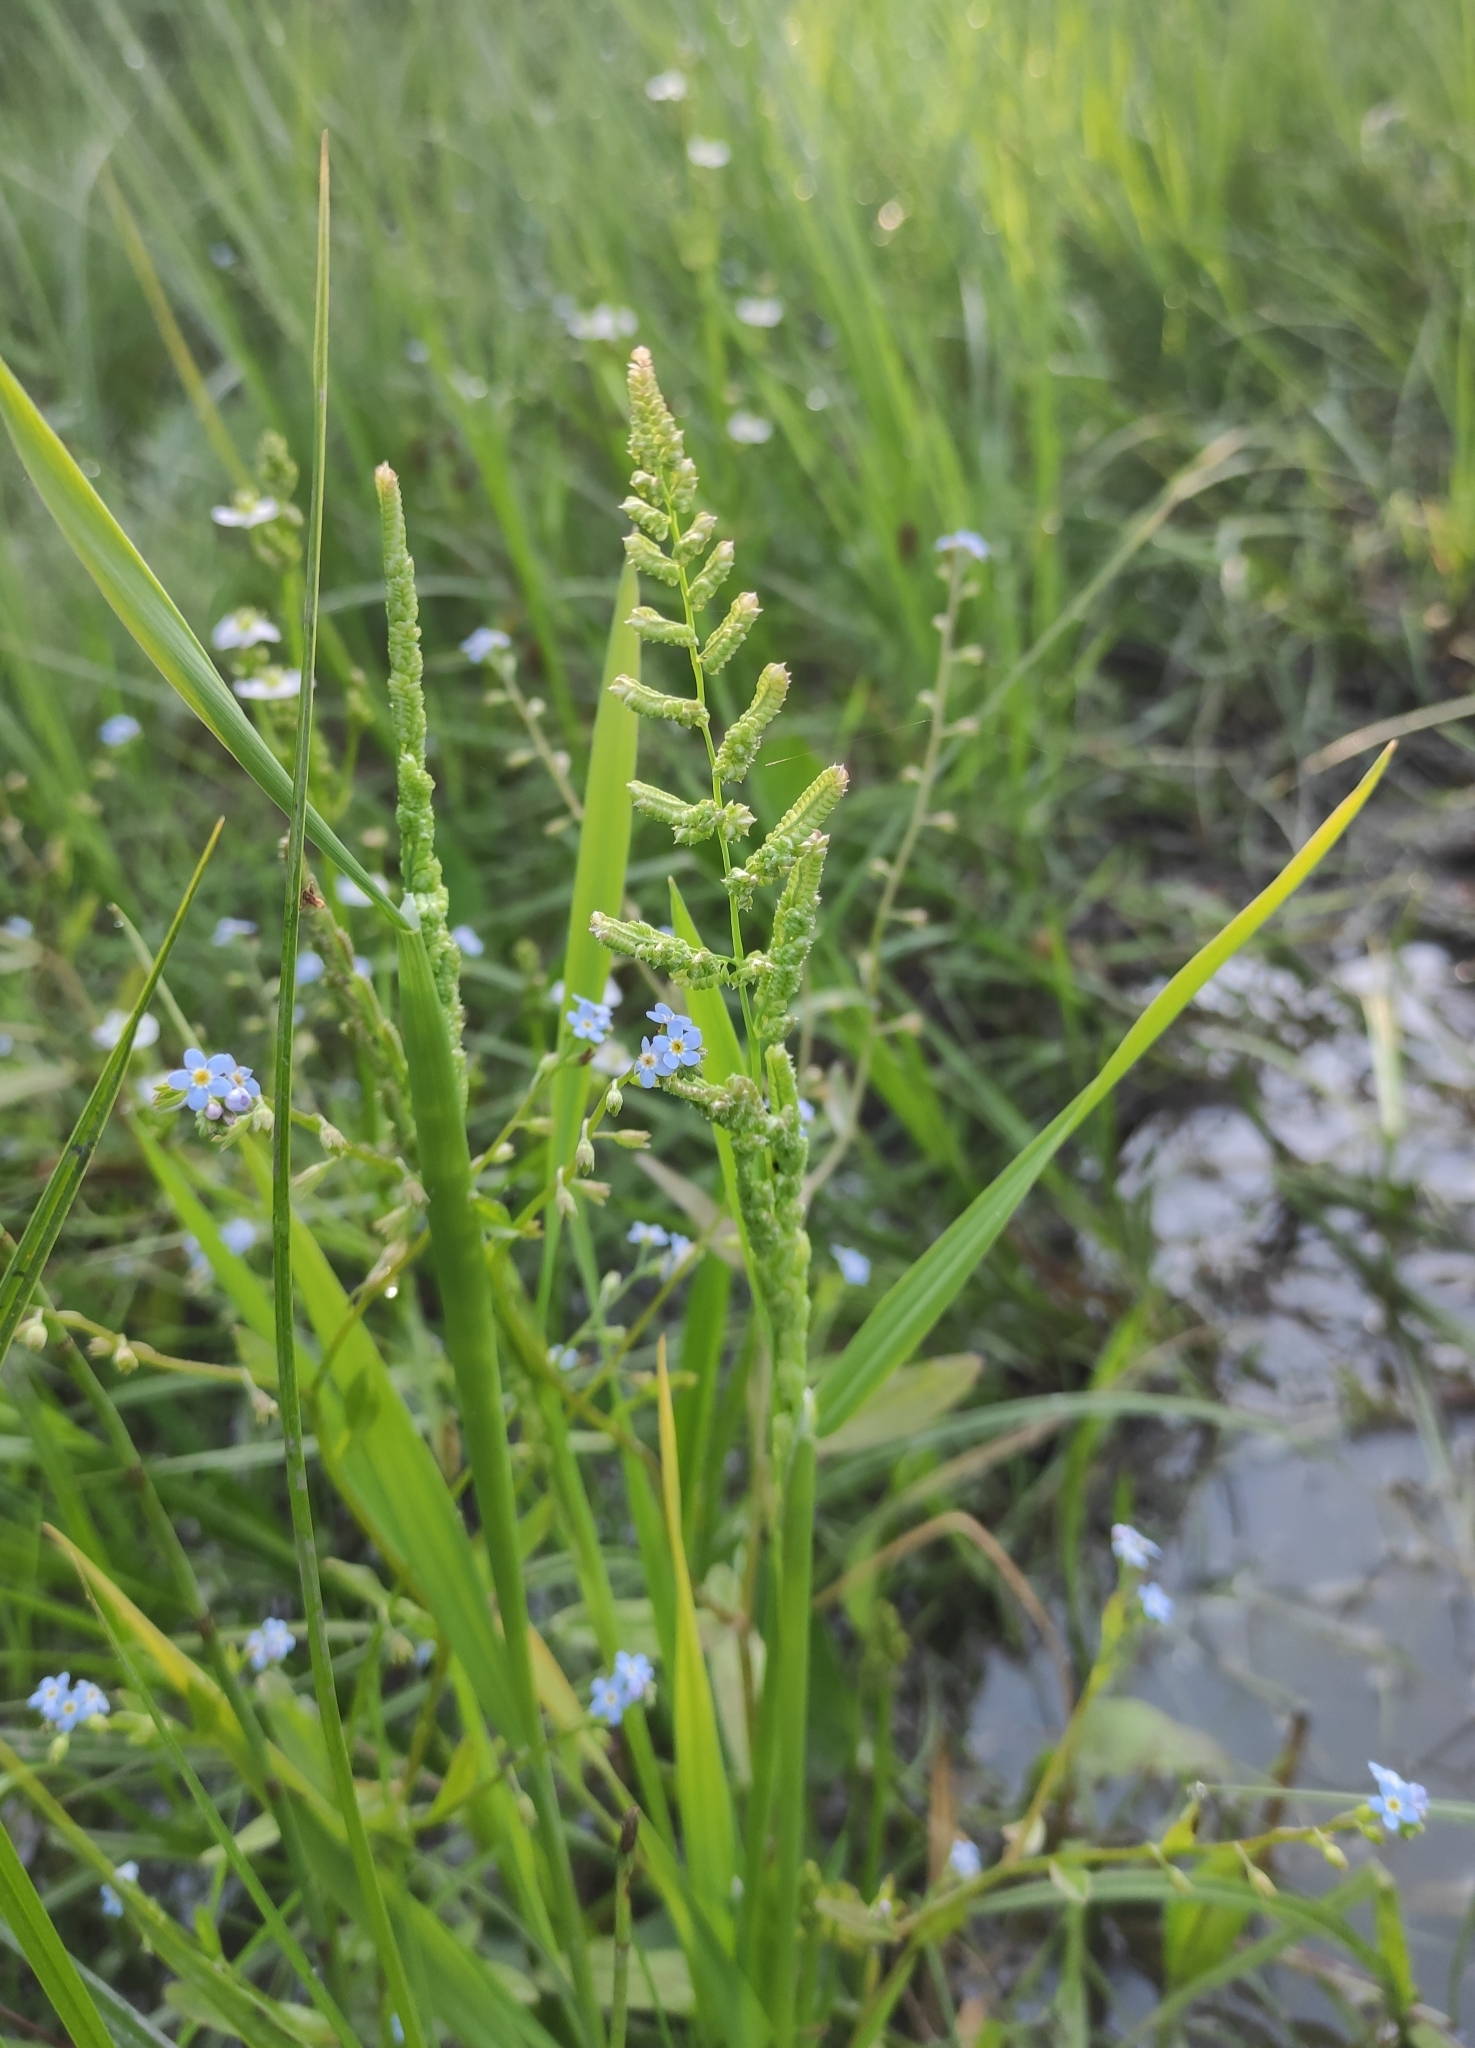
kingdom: Plantae
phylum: Tracheophyta
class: Liliopsida
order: Poales
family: Poaceae
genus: Beckmannia
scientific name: Beckmannia syzigachne
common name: American slough-grass
